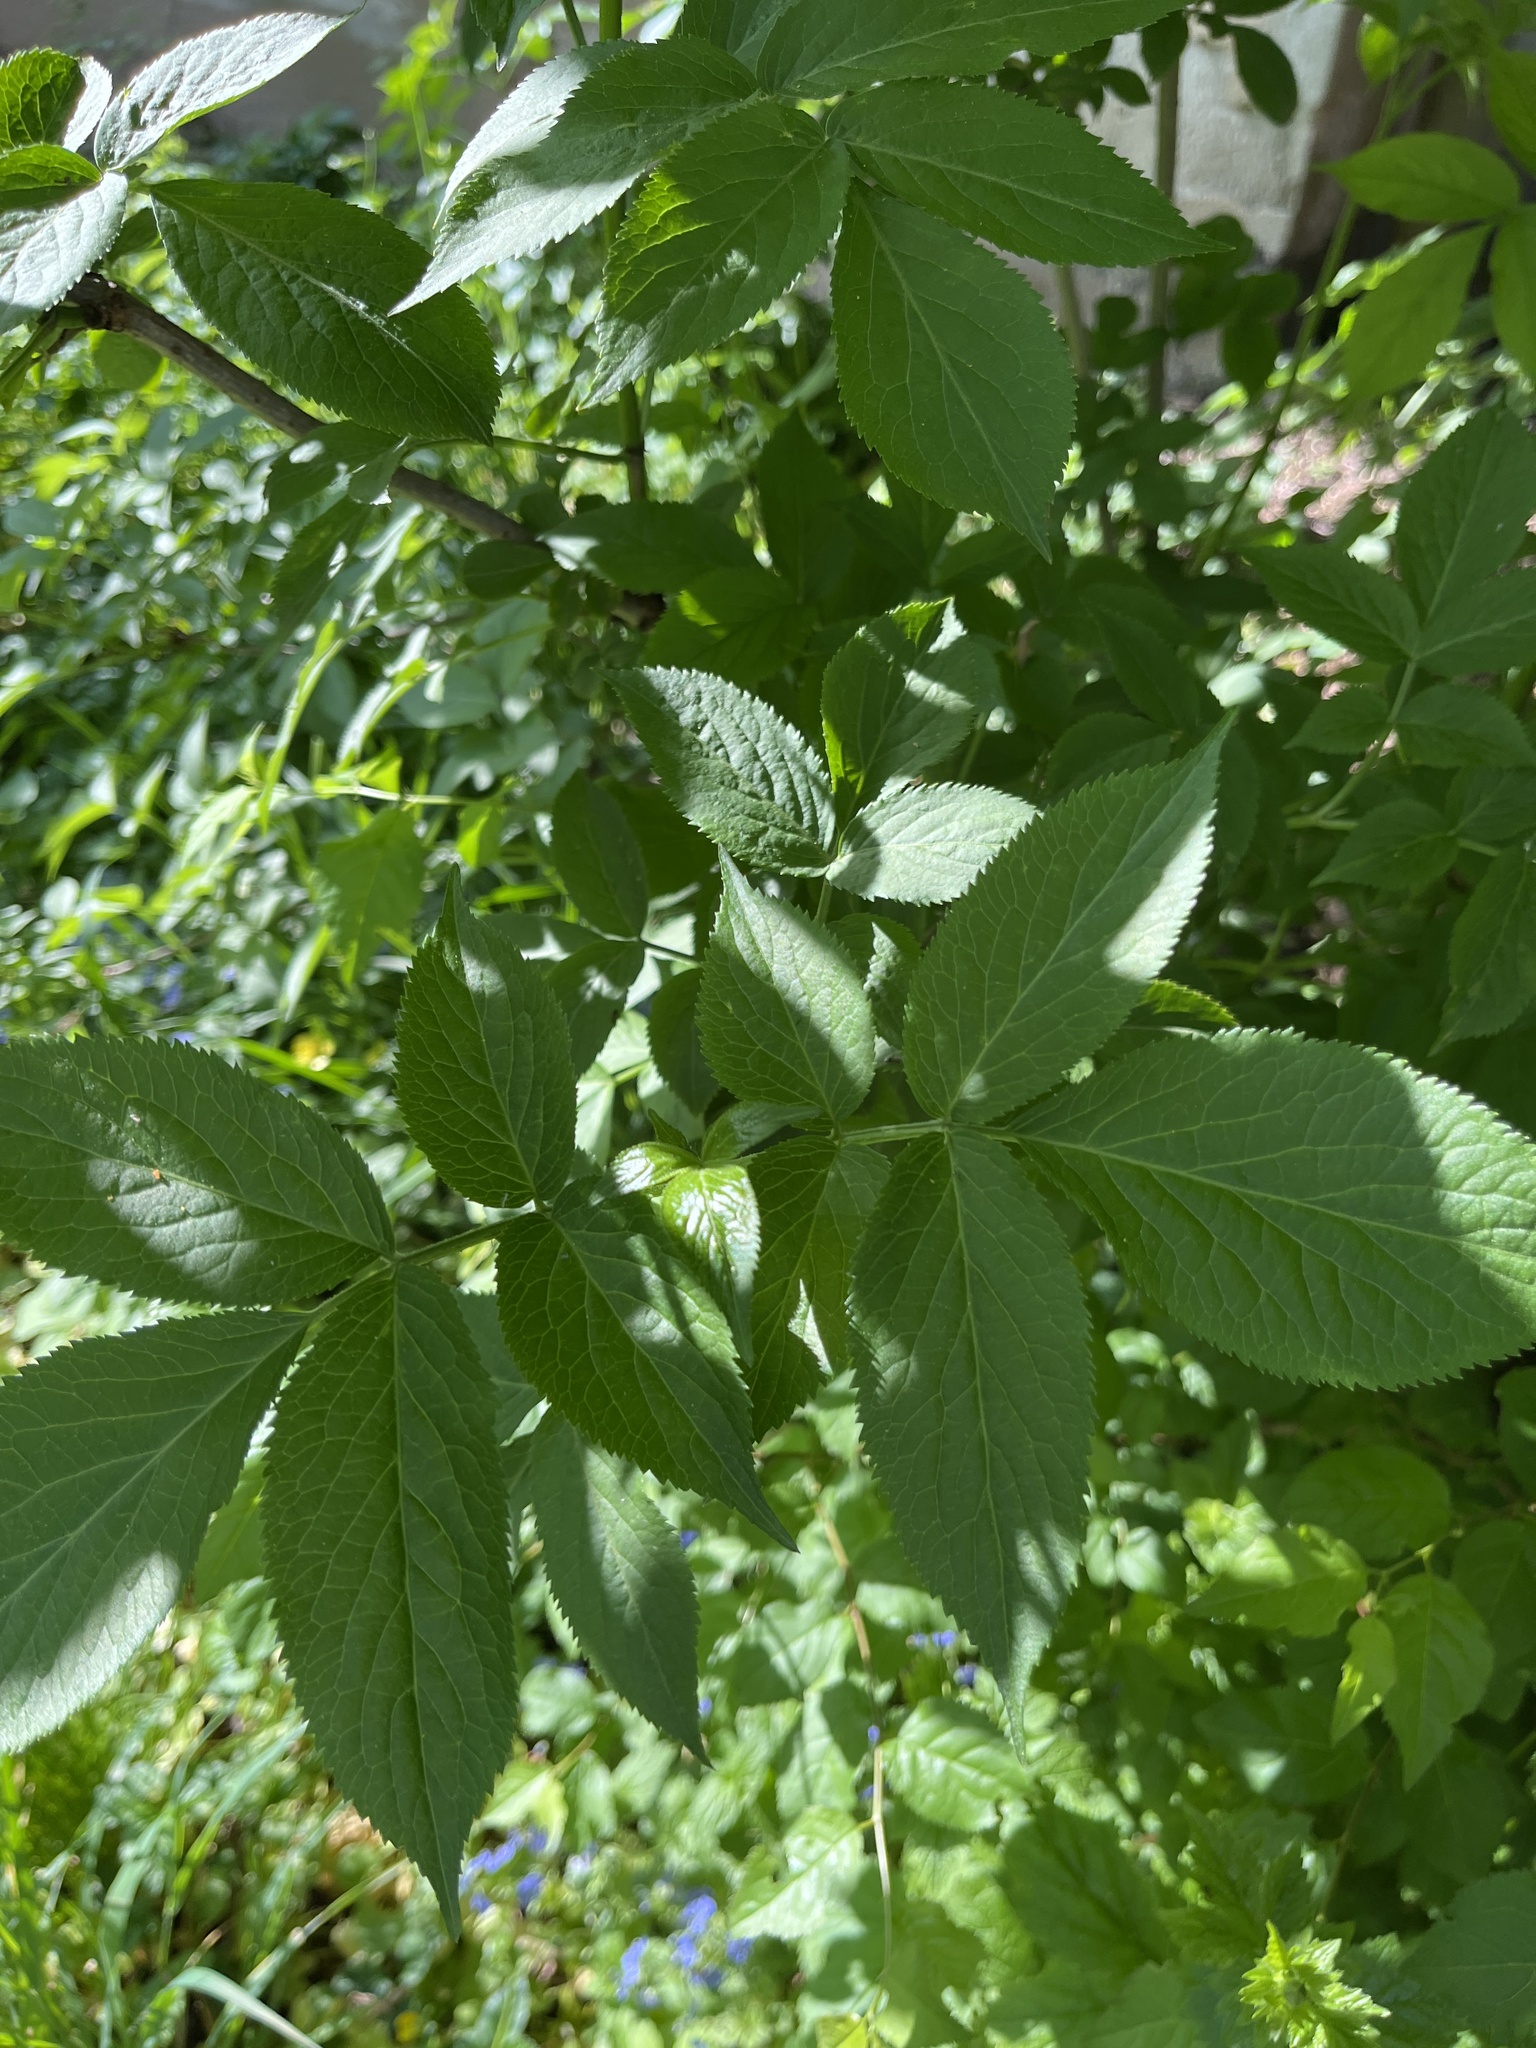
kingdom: Plantae
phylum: Tracheophyta
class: Magnoliopsida
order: Dipsacales
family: Viburnaceae
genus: Sambucus
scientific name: Sambucus nigra
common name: Elder
